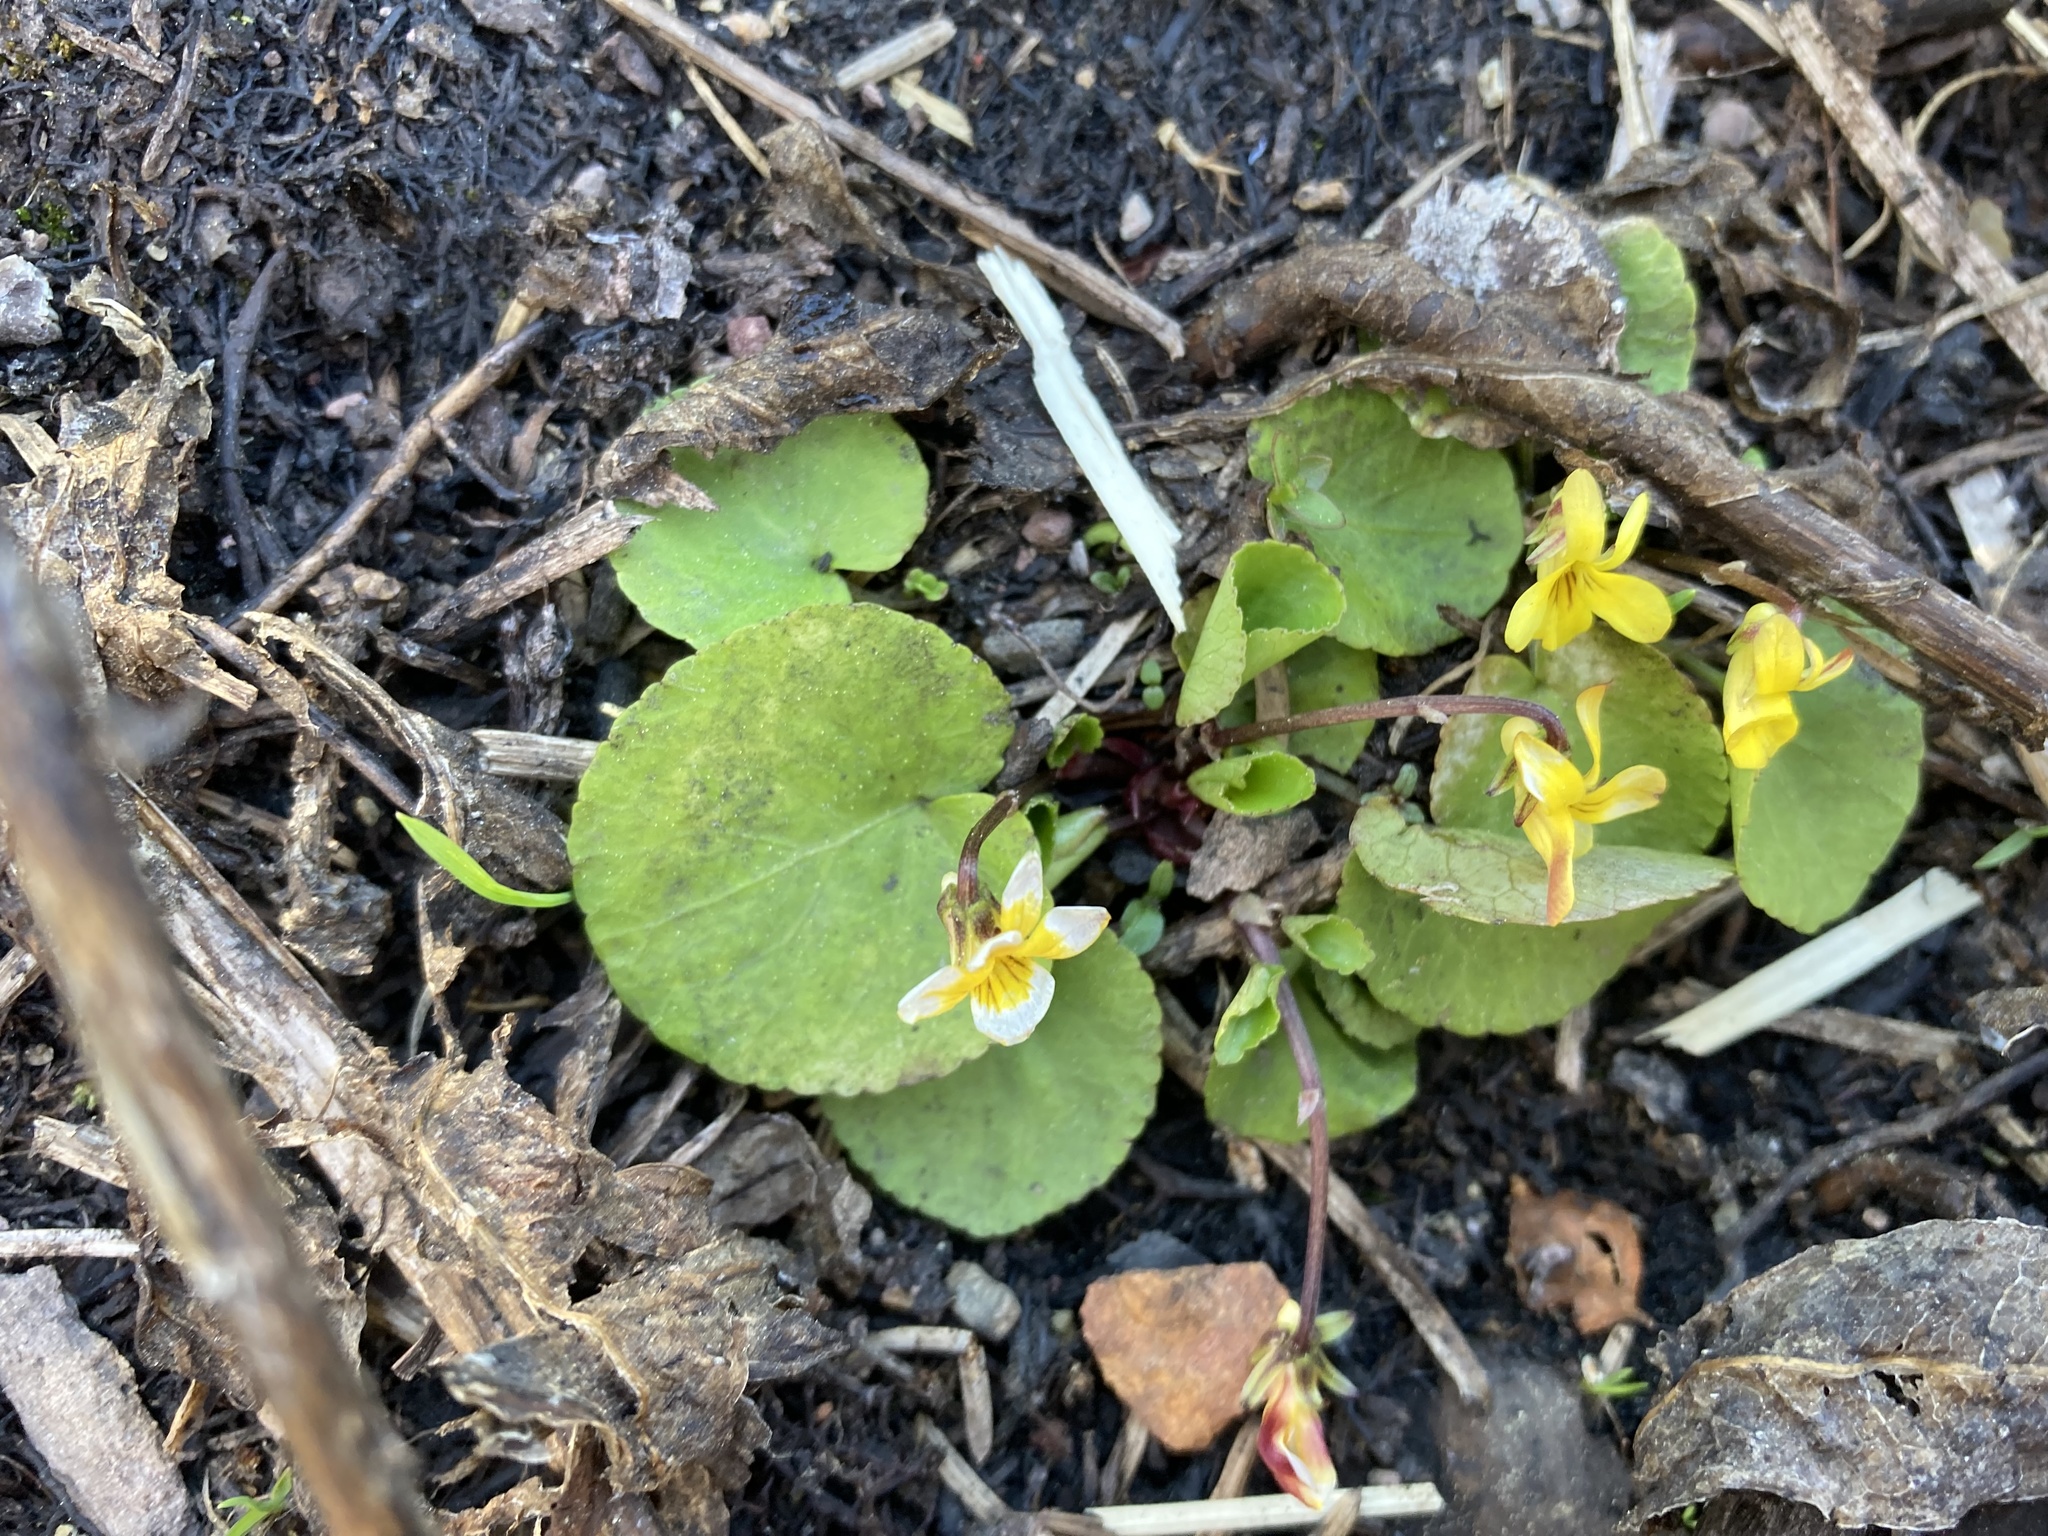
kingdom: Plantae
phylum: Tracheophyta
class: Magnoliopsida
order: Malpighiales
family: Violaceae
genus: Viola
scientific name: Viola orbiculata
